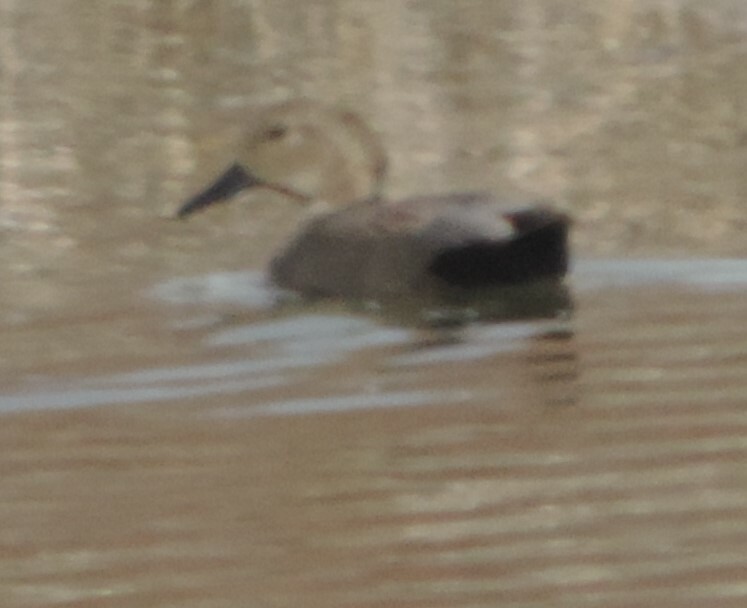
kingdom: Animalia
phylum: Chordata
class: Aves
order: Anseriformes
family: Anatidae
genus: Mareca
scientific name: Mareca strepera
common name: Gadwall
